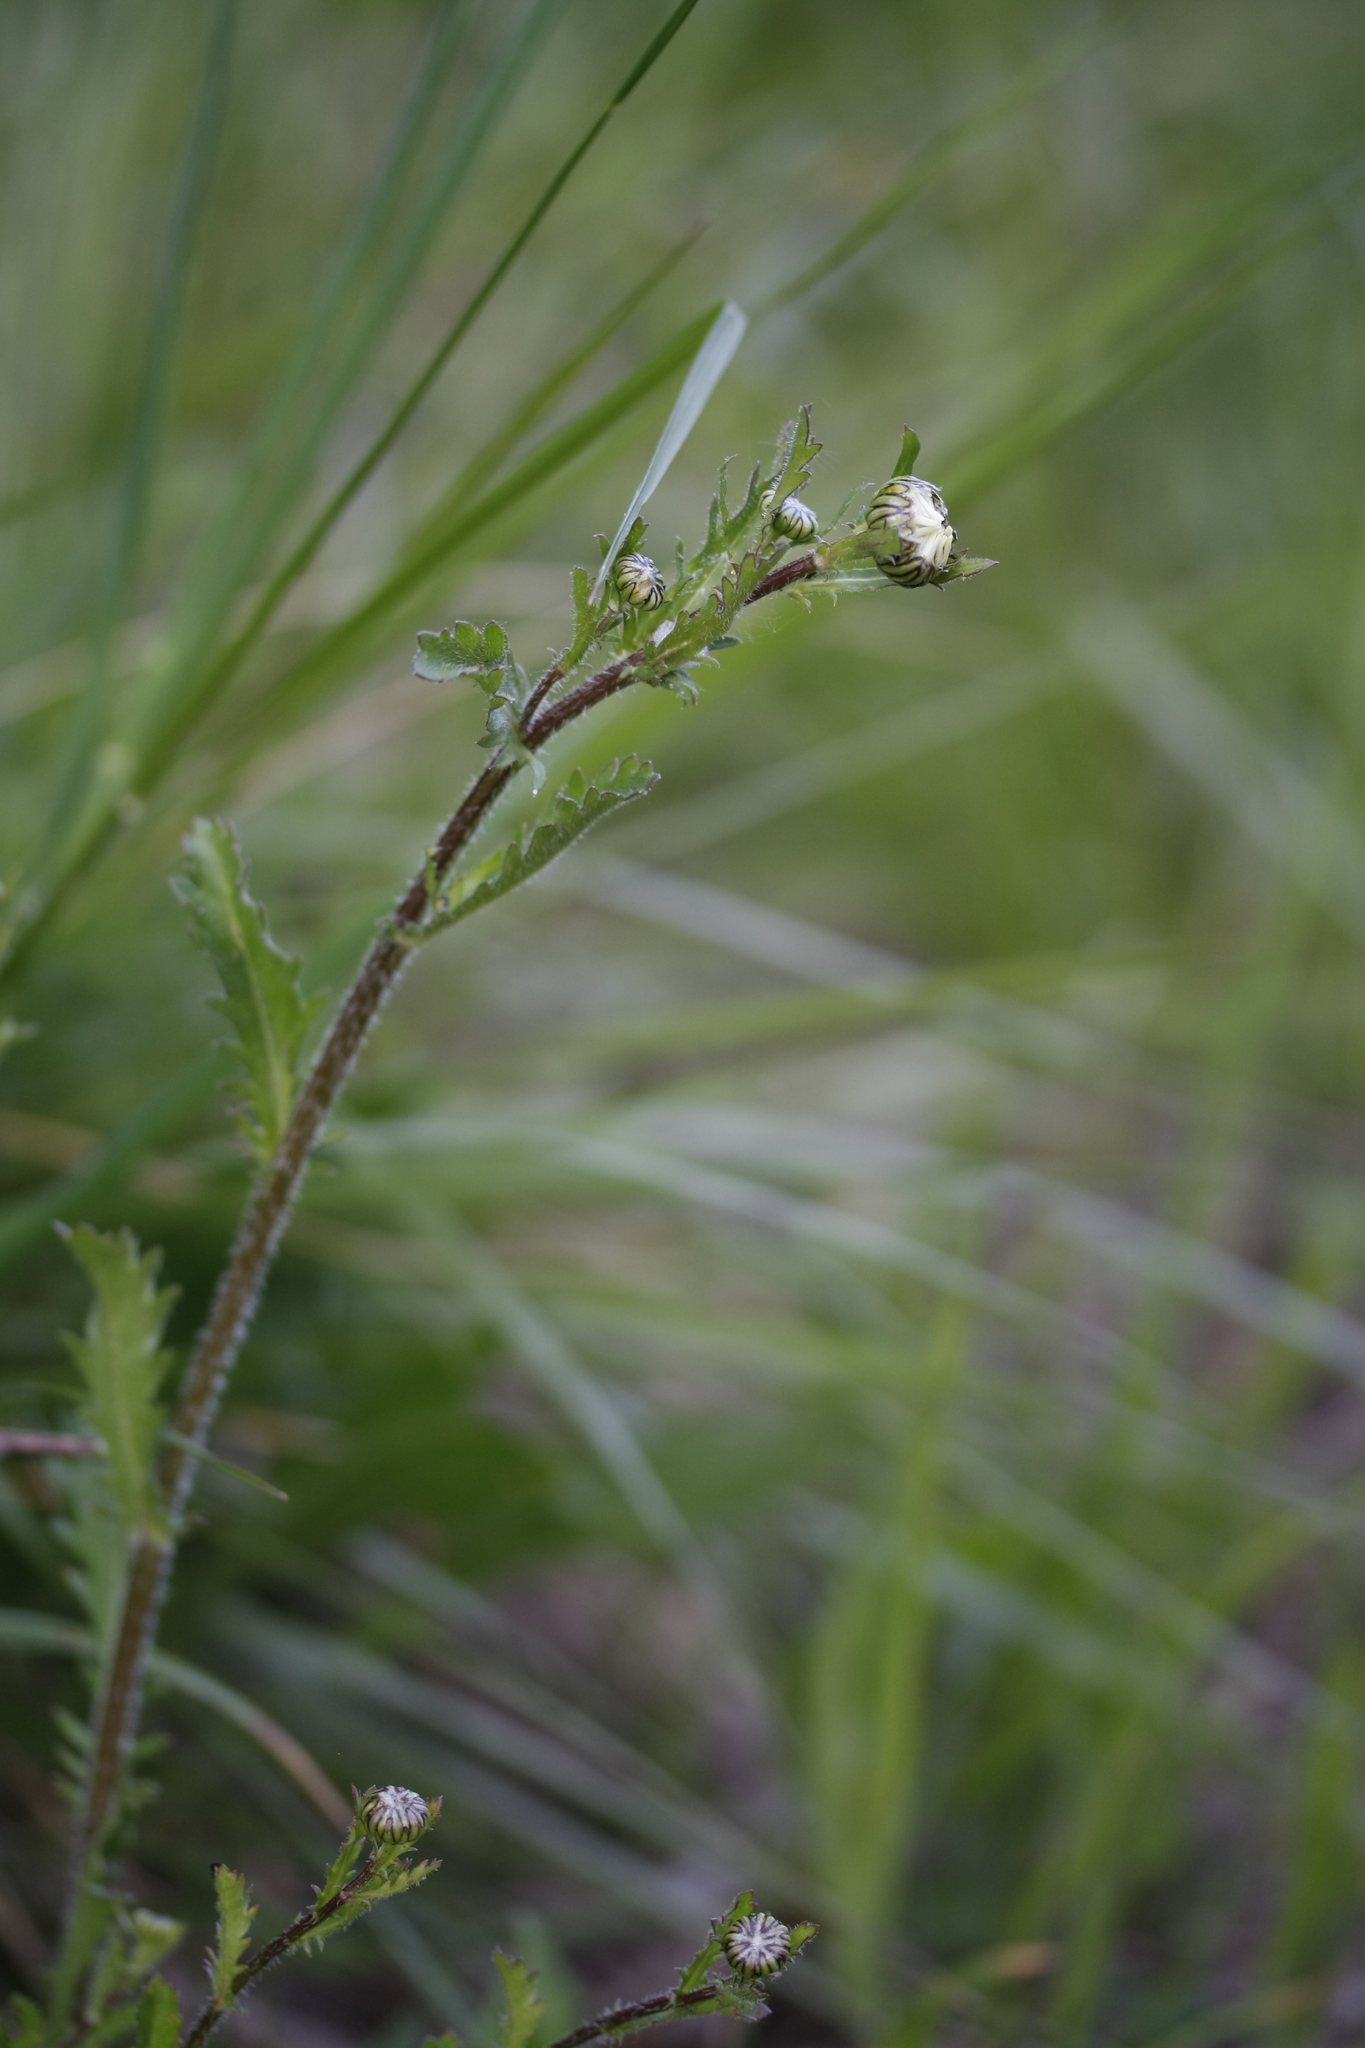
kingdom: Plantae
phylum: Tracheophyta
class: Magnoliopsida
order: Asterales
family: Asteraceae
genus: Leucanthemum
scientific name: Leucanthemum vulgare
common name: Oxeye daisy
